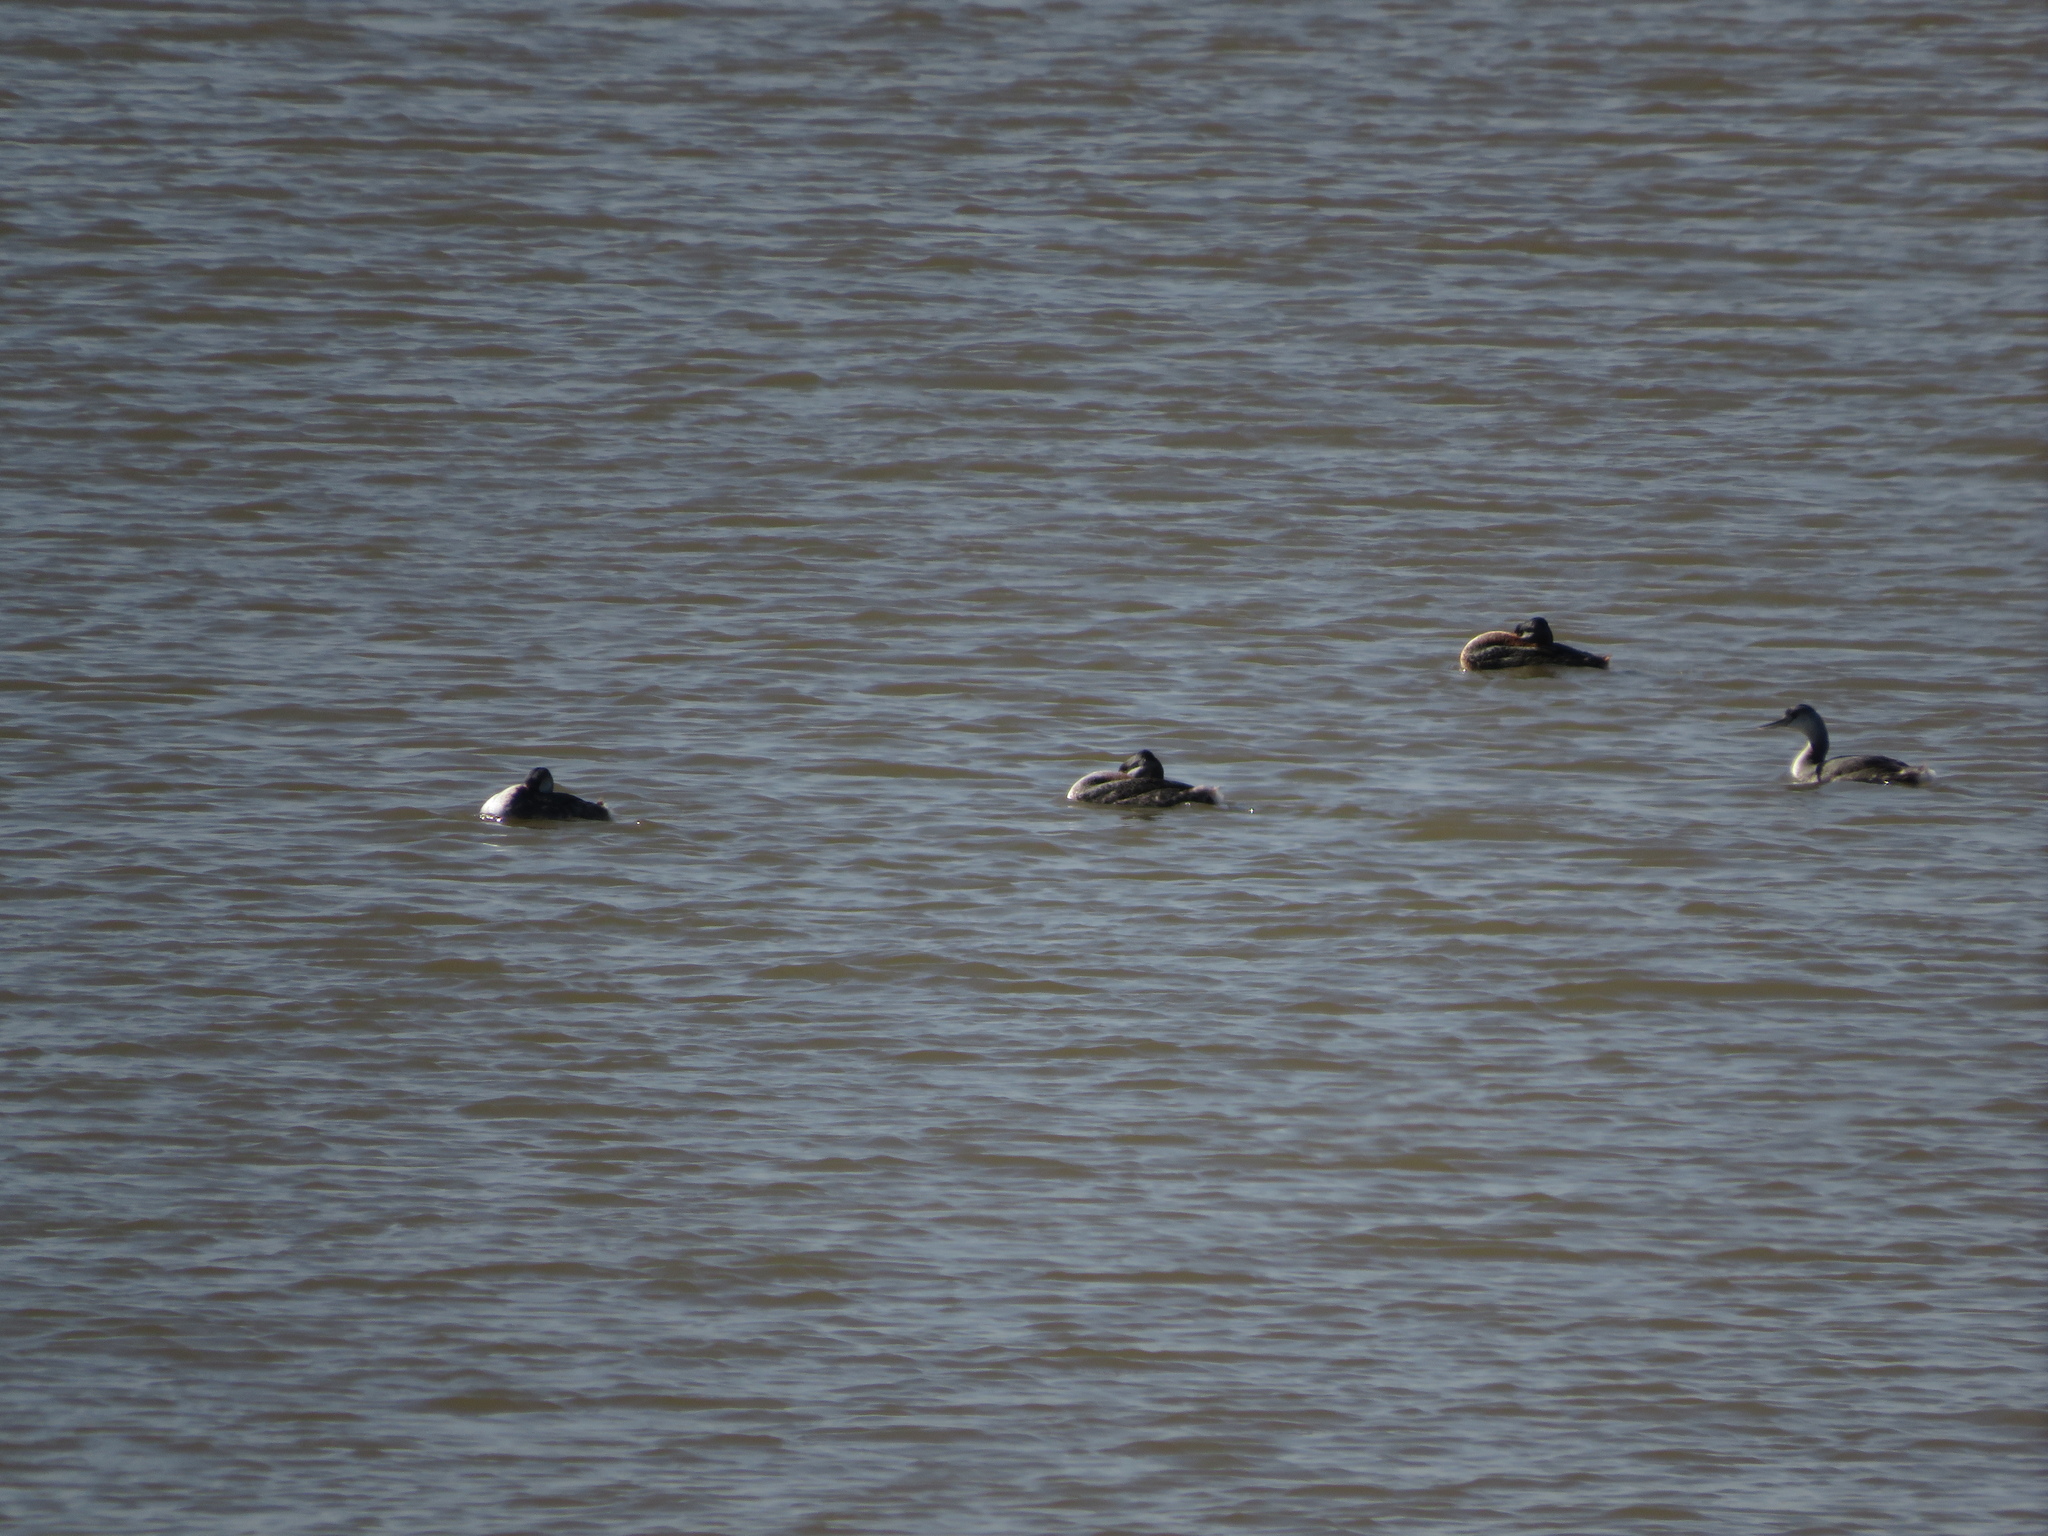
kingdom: Animalia
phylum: Chordata
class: Aves
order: Podicipediformes
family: Podicipedidae
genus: Podiceps
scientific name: Podiceps major
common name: Great grebe
